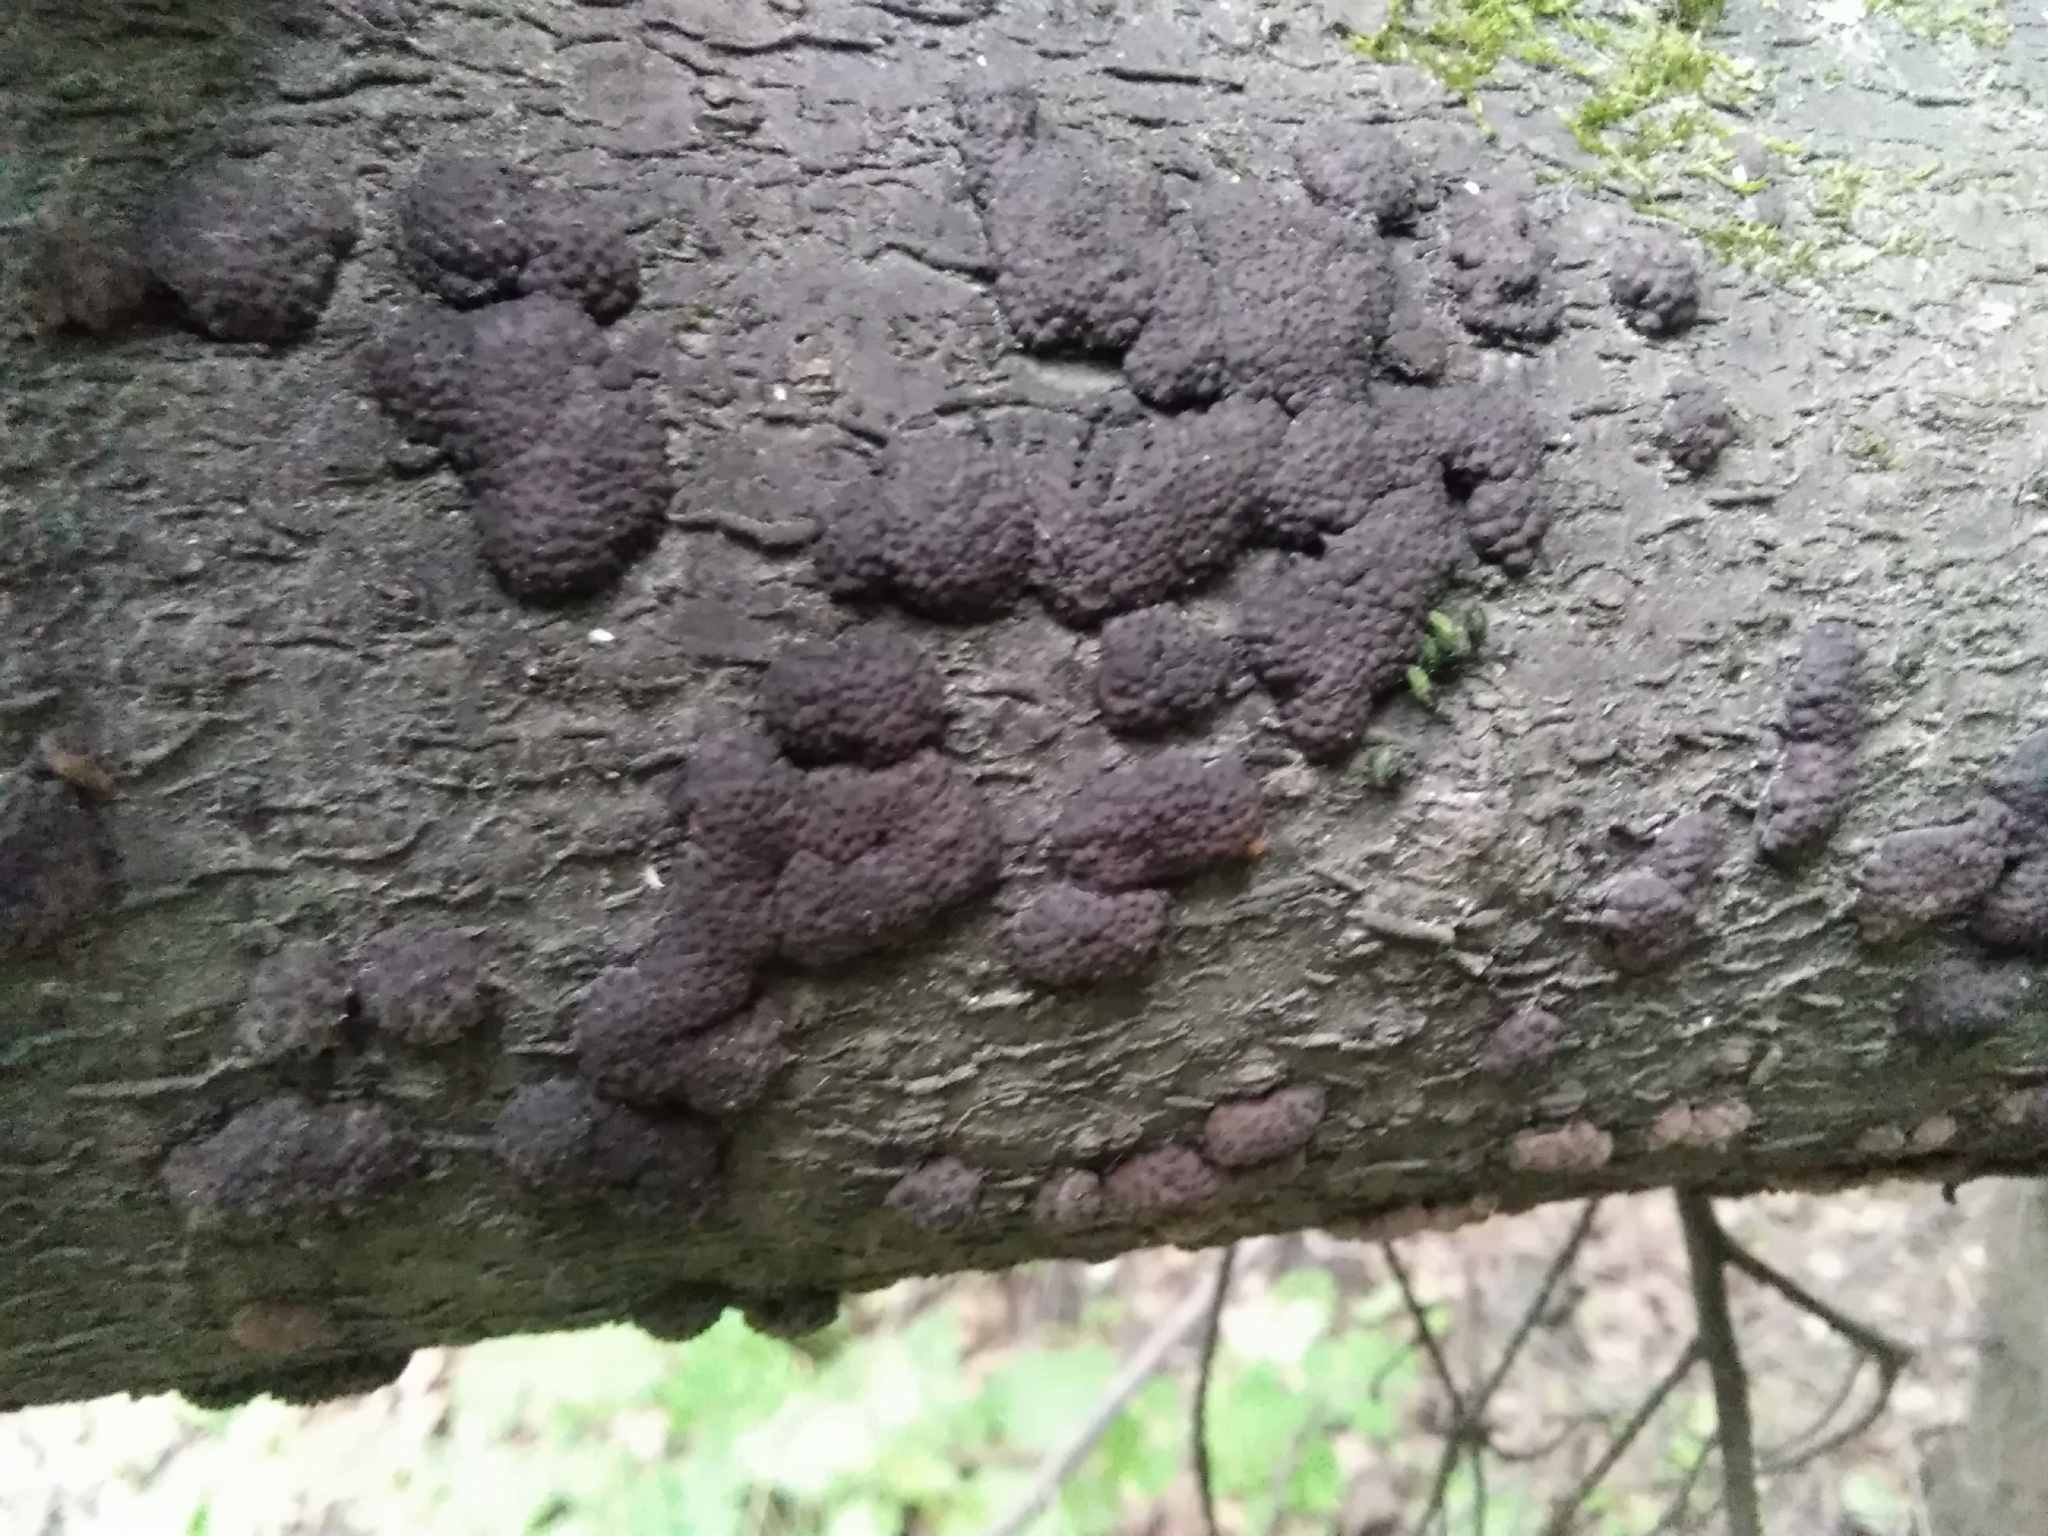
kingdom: Fungi
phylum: Ascomycota
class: Sordariomycetes
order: Xylariales
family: Hypoxylaceae
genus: Jackrogersella
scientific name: Jackrogersella multiformis
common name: Birch woodwart
